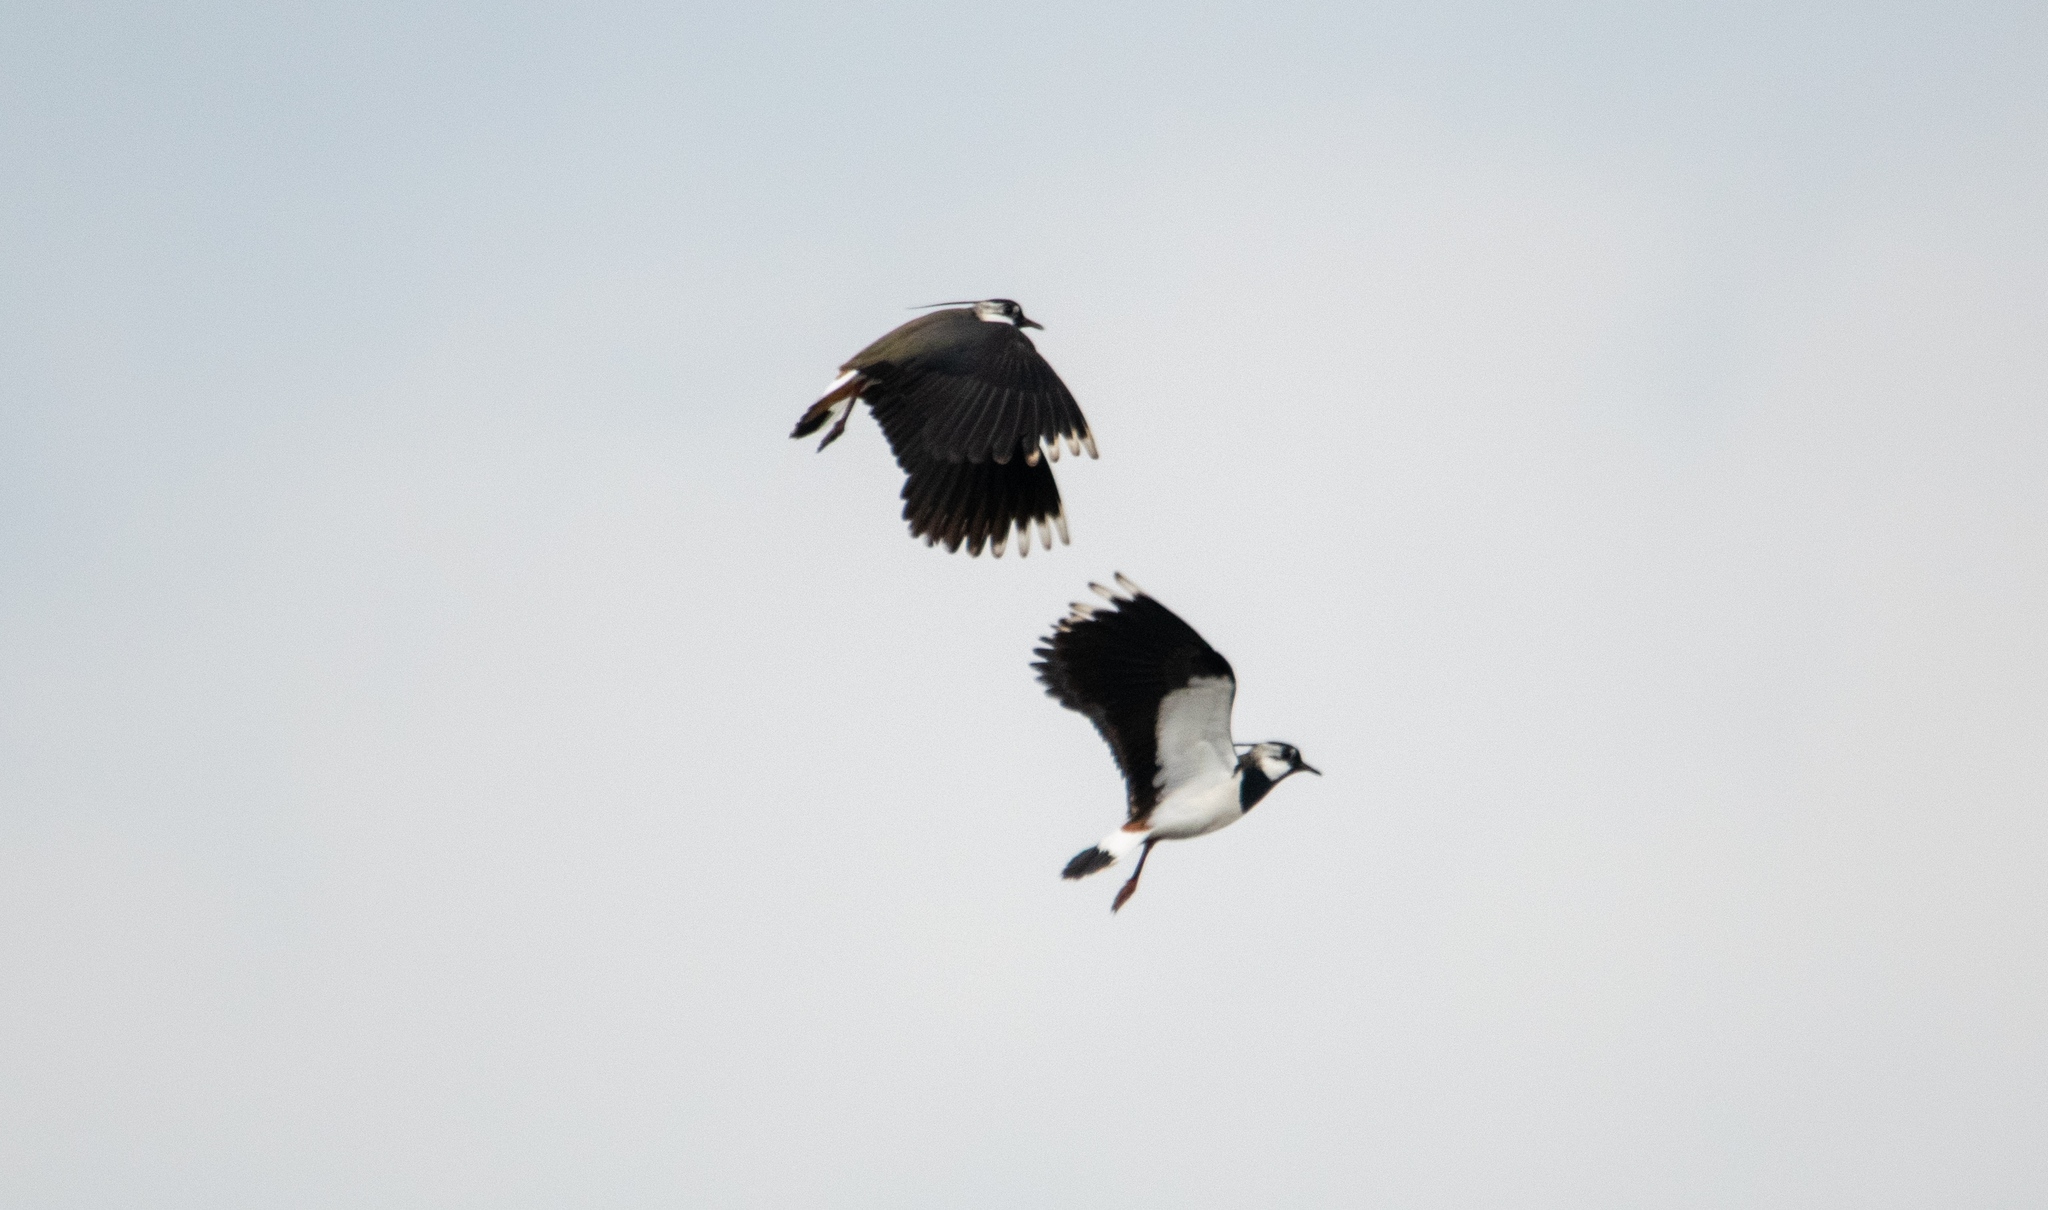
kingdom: Animalia
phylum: Chordata
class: Aves
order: Charadriiformes
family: Charadriidae
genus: Vanellus
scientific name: Vanellus vanellus
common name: Northern lapwing
